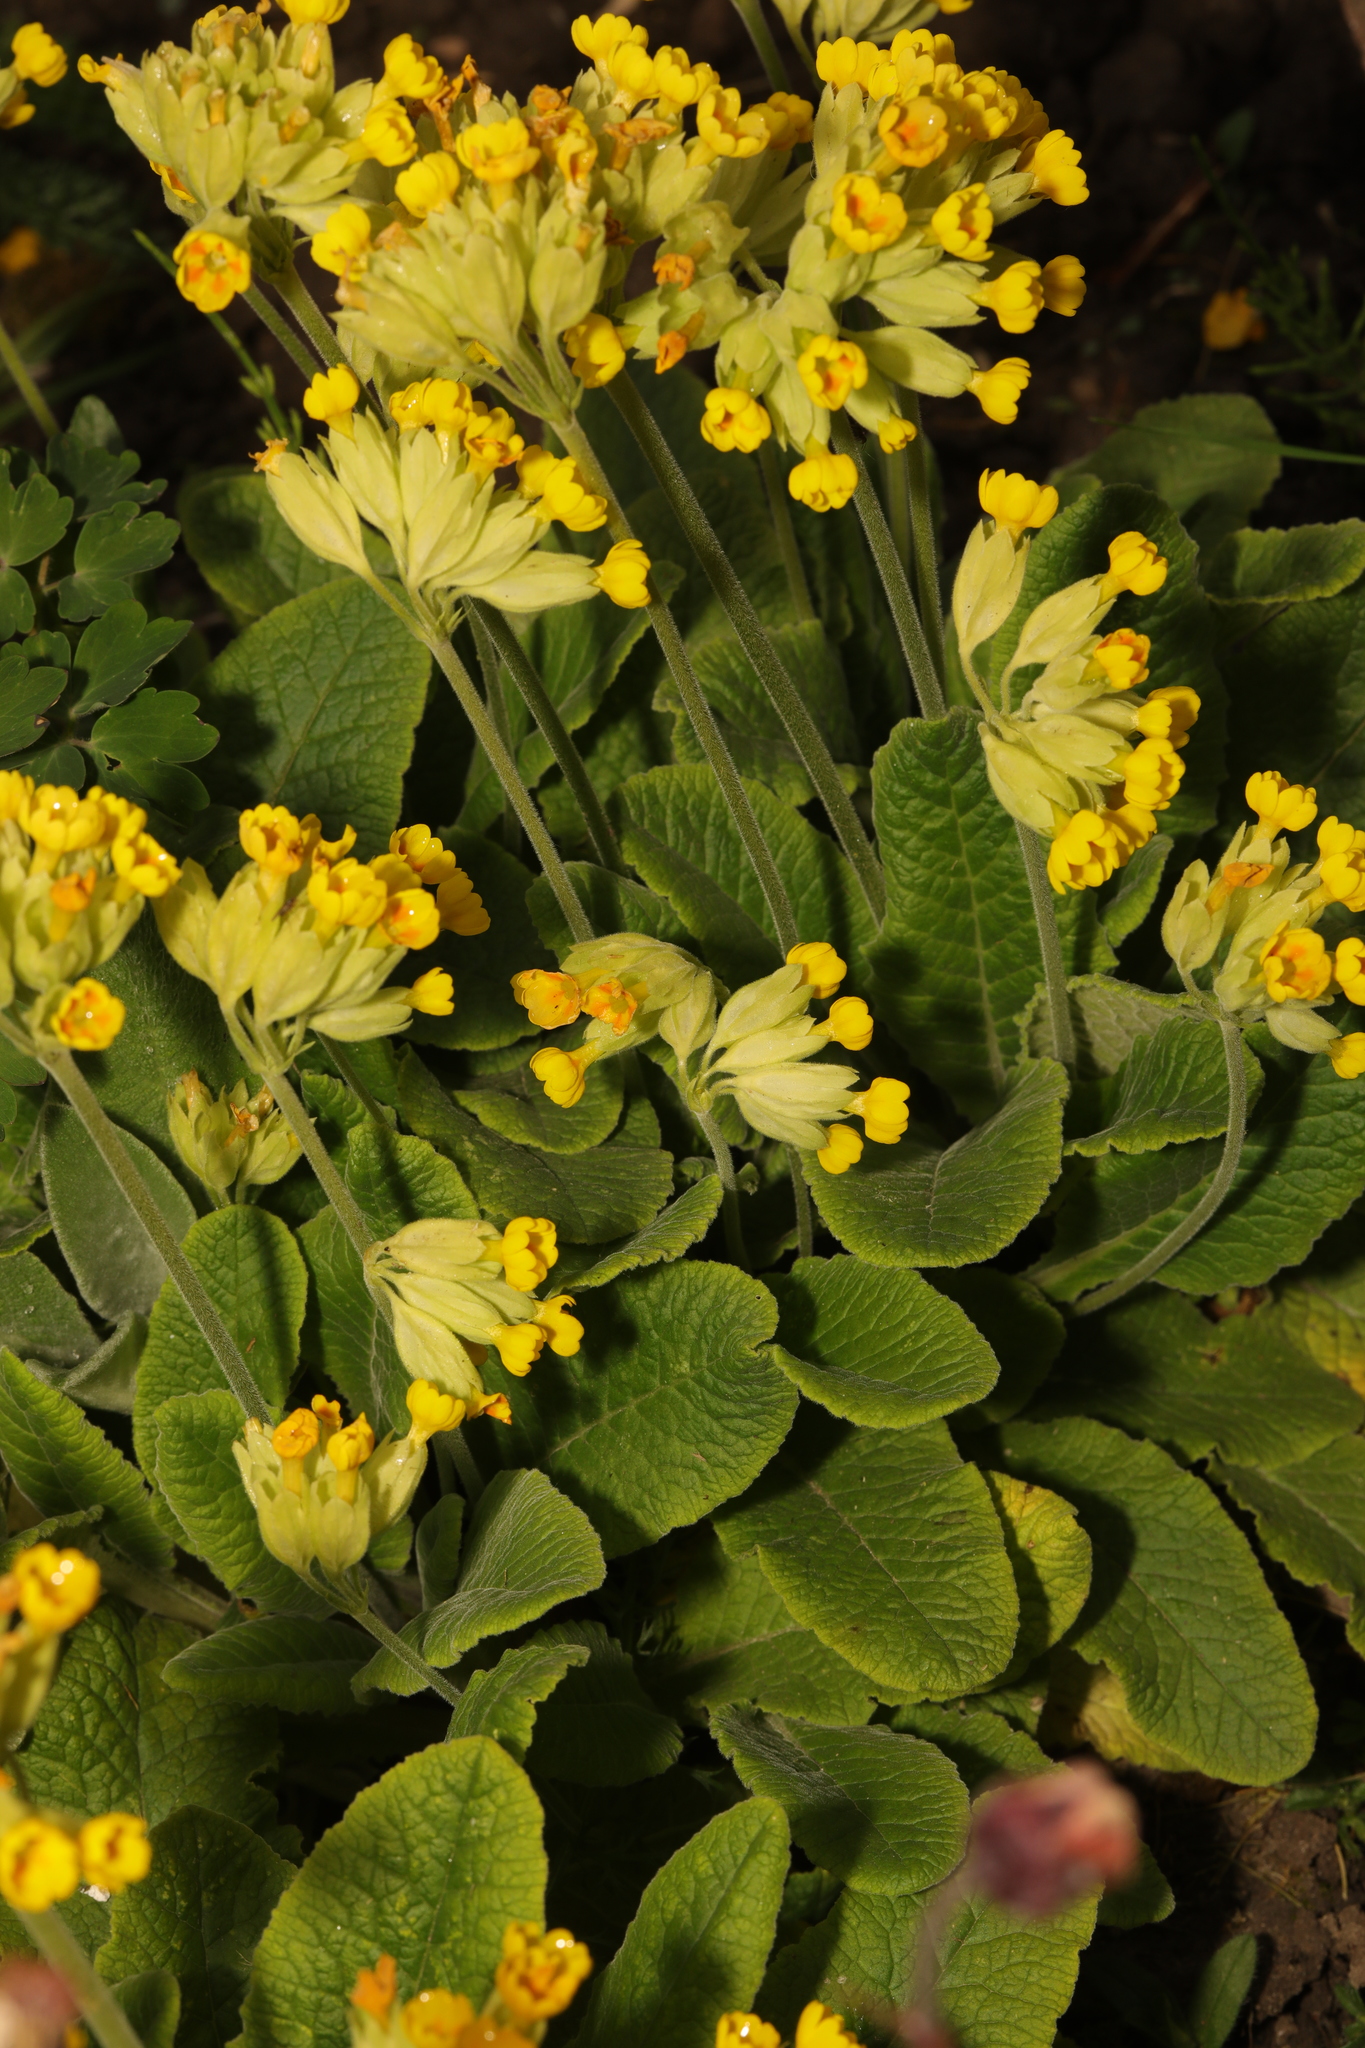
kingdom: Plantae
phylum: Tracheophyta
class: Magnoliopsida
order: Ericales
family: Primulaceae
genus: Primula
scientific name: Primula veris
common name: Cowslip
